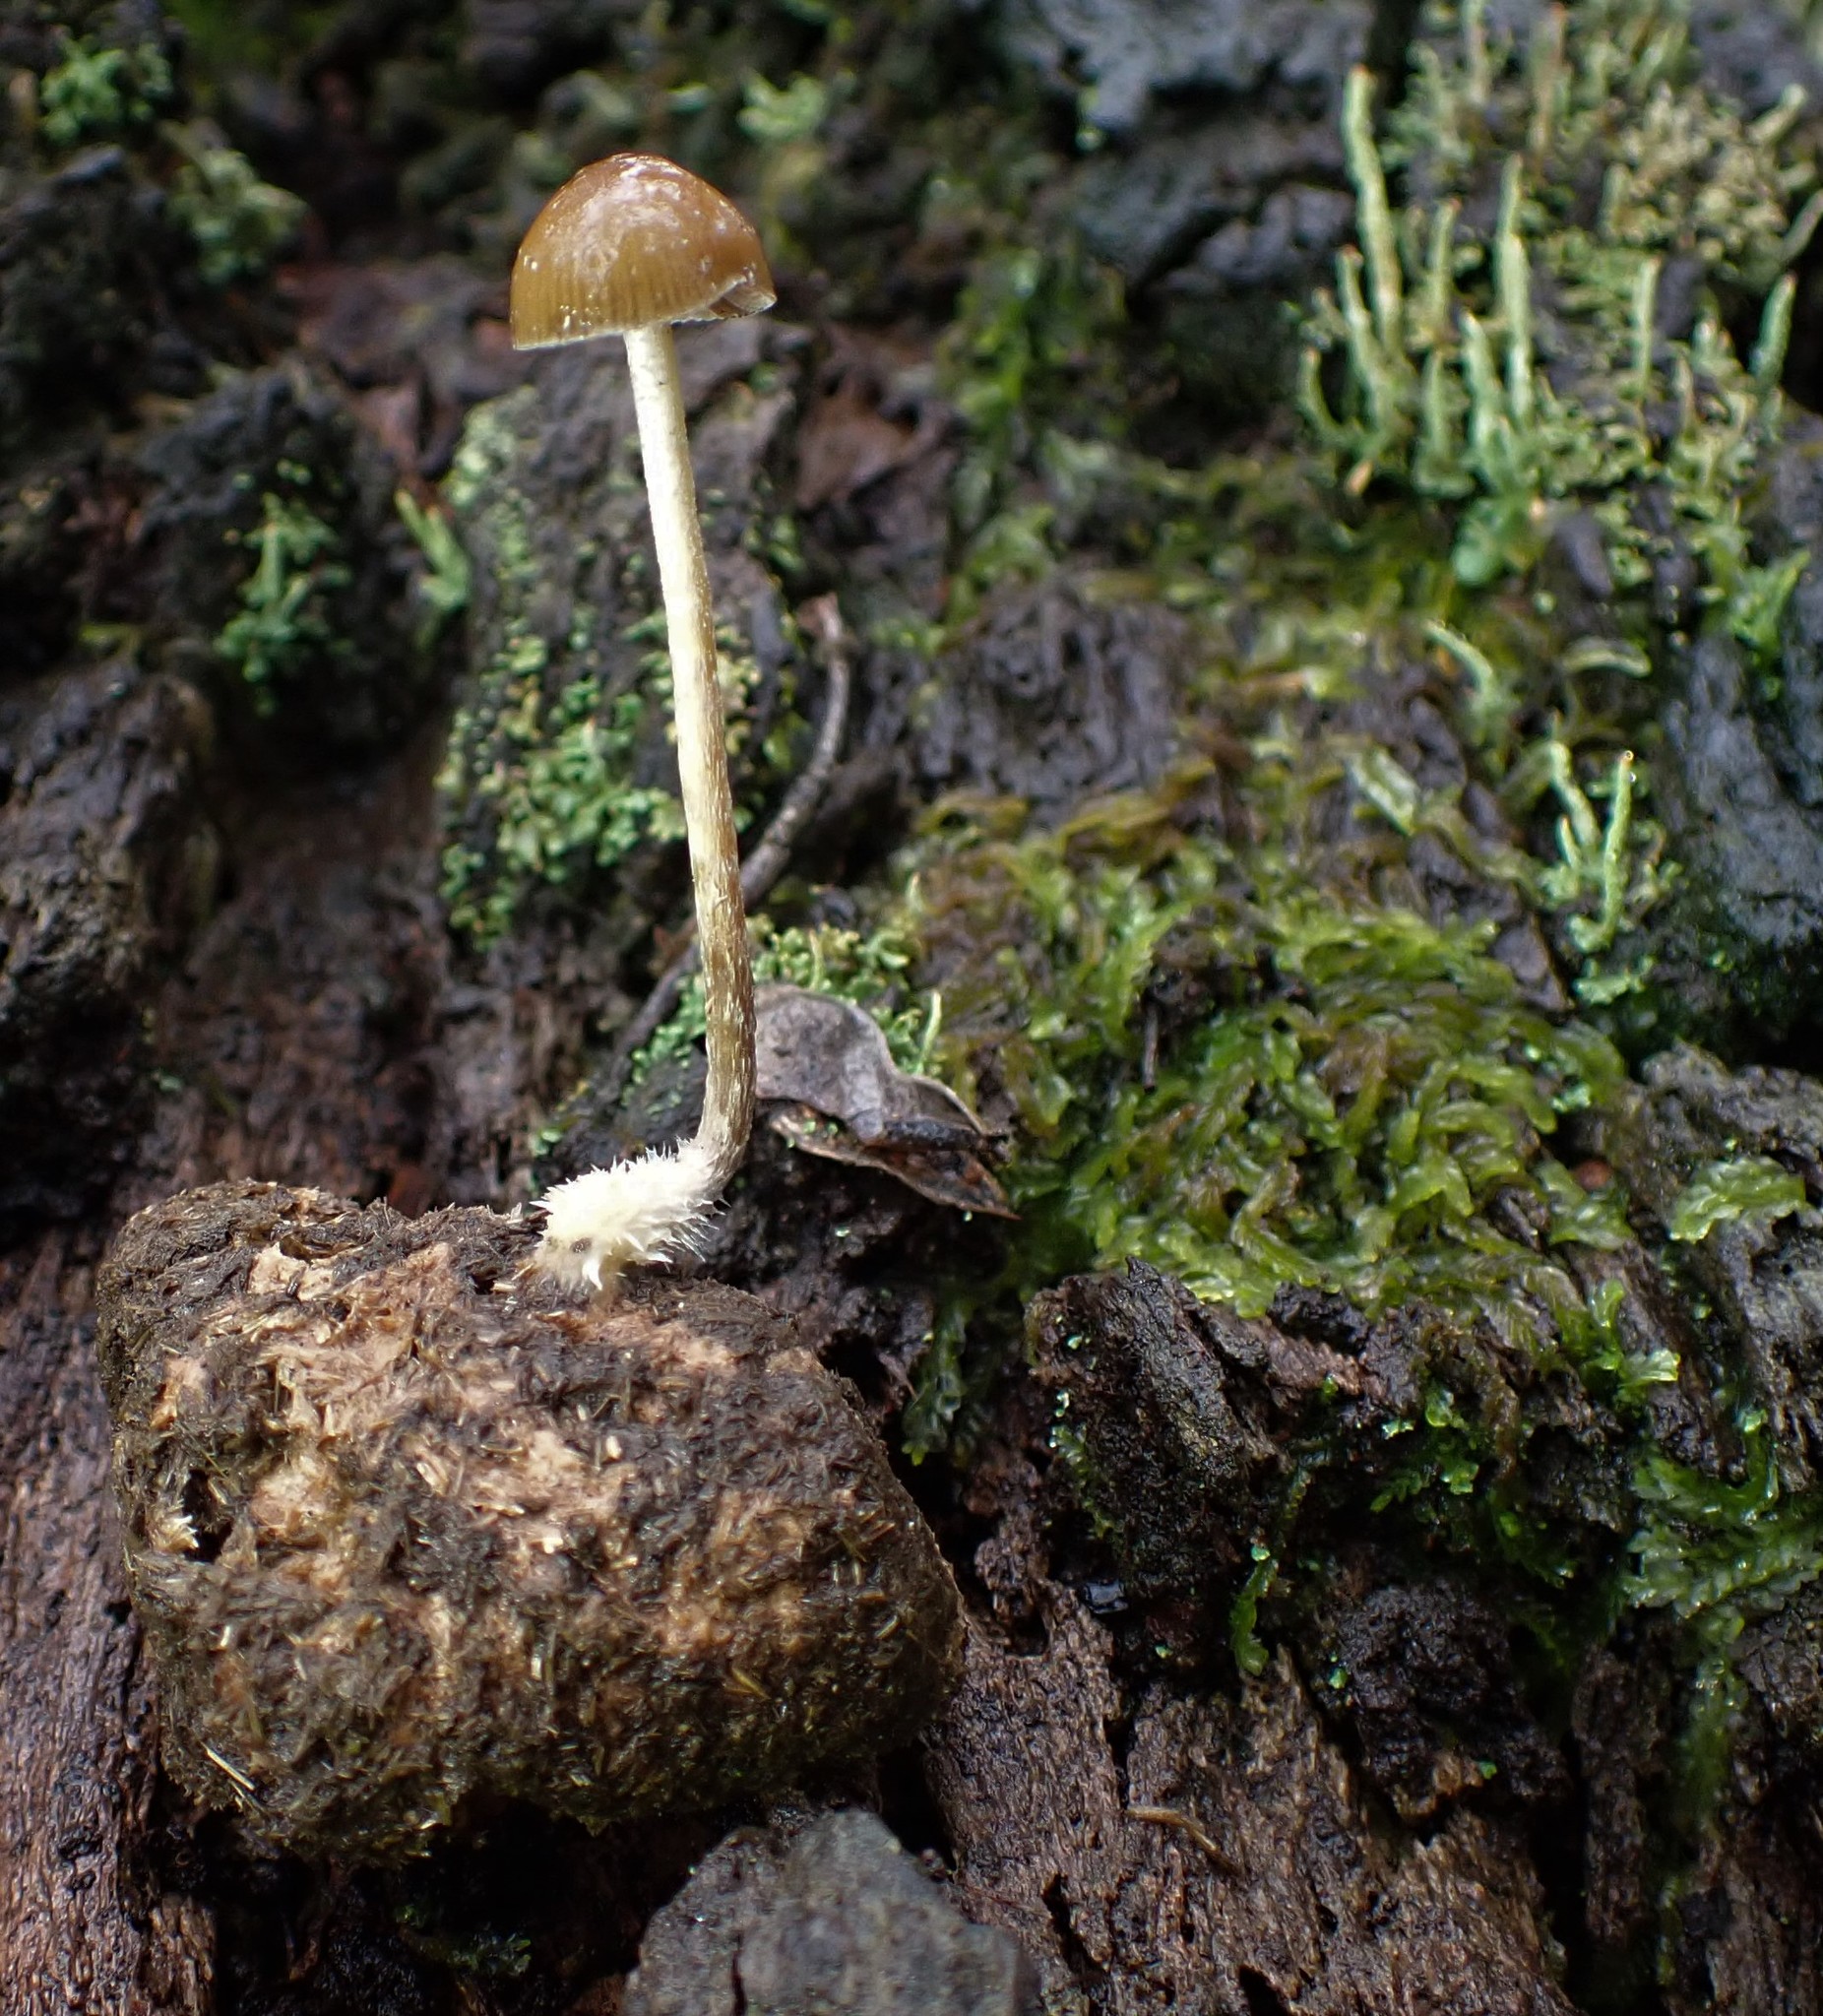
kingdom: Fungi
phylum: Basidiomycota
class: Agaricomycetes
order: Agaricales
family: Hymenogastraceae
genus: Psilocybe
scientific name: Psilocybe alutacea
